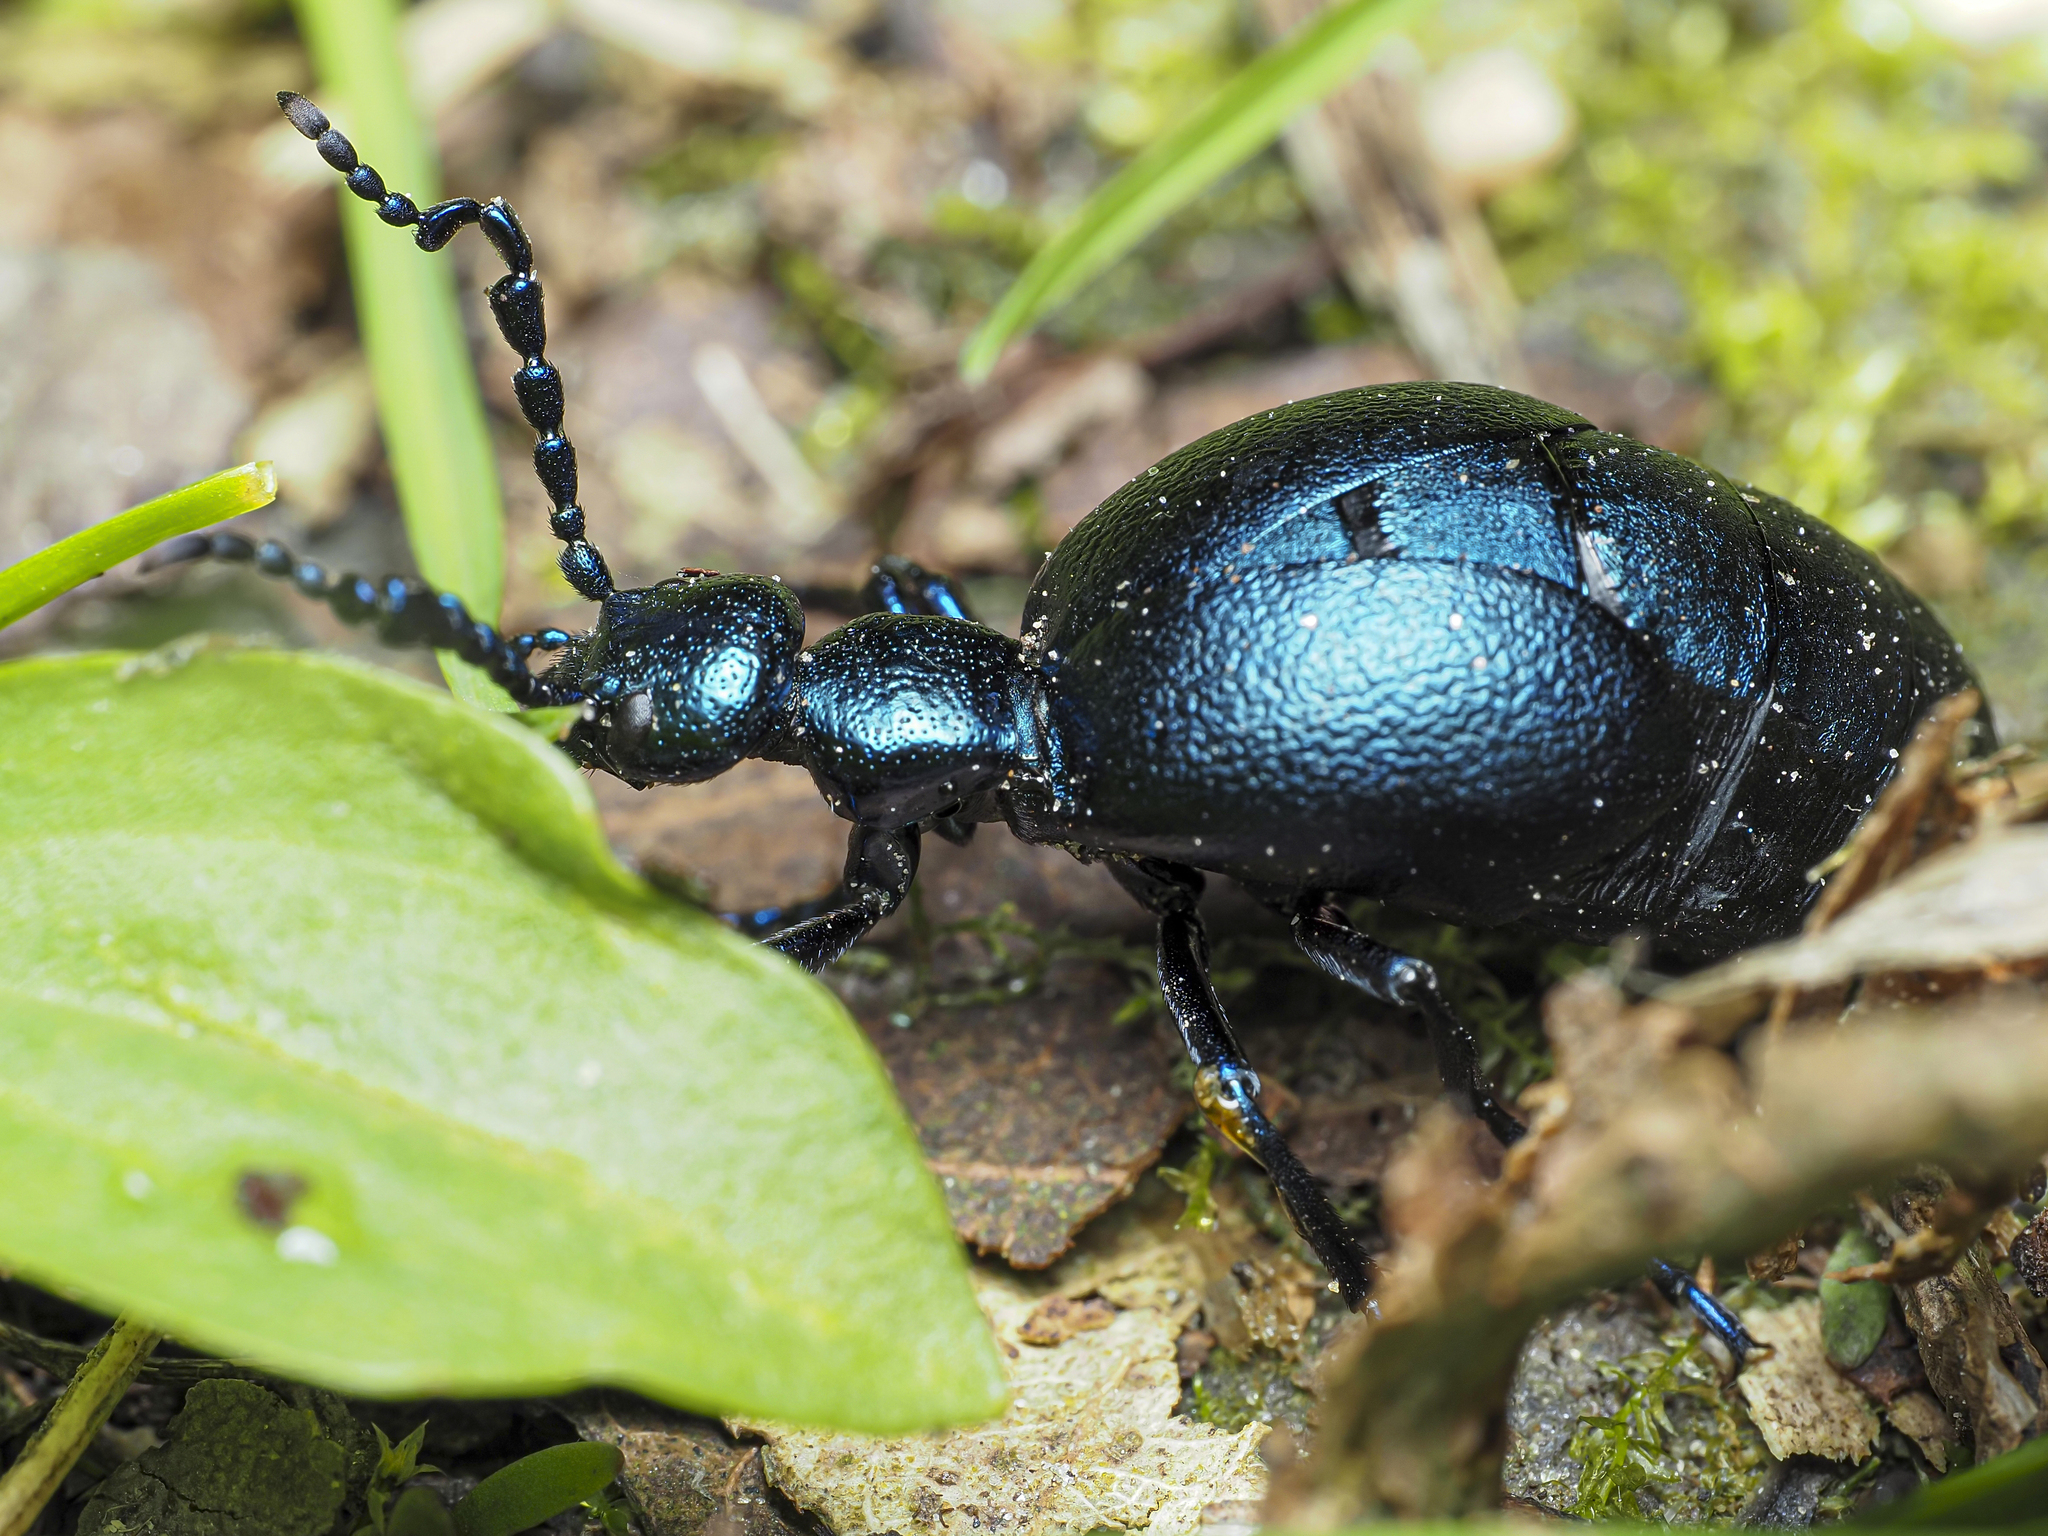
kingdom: Animalia
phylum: Arthropoda
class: Insecta
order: Coleoptera
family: Meloidae
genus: Meloe
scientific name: Meloe violaceus
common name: Violet oil-beetle
